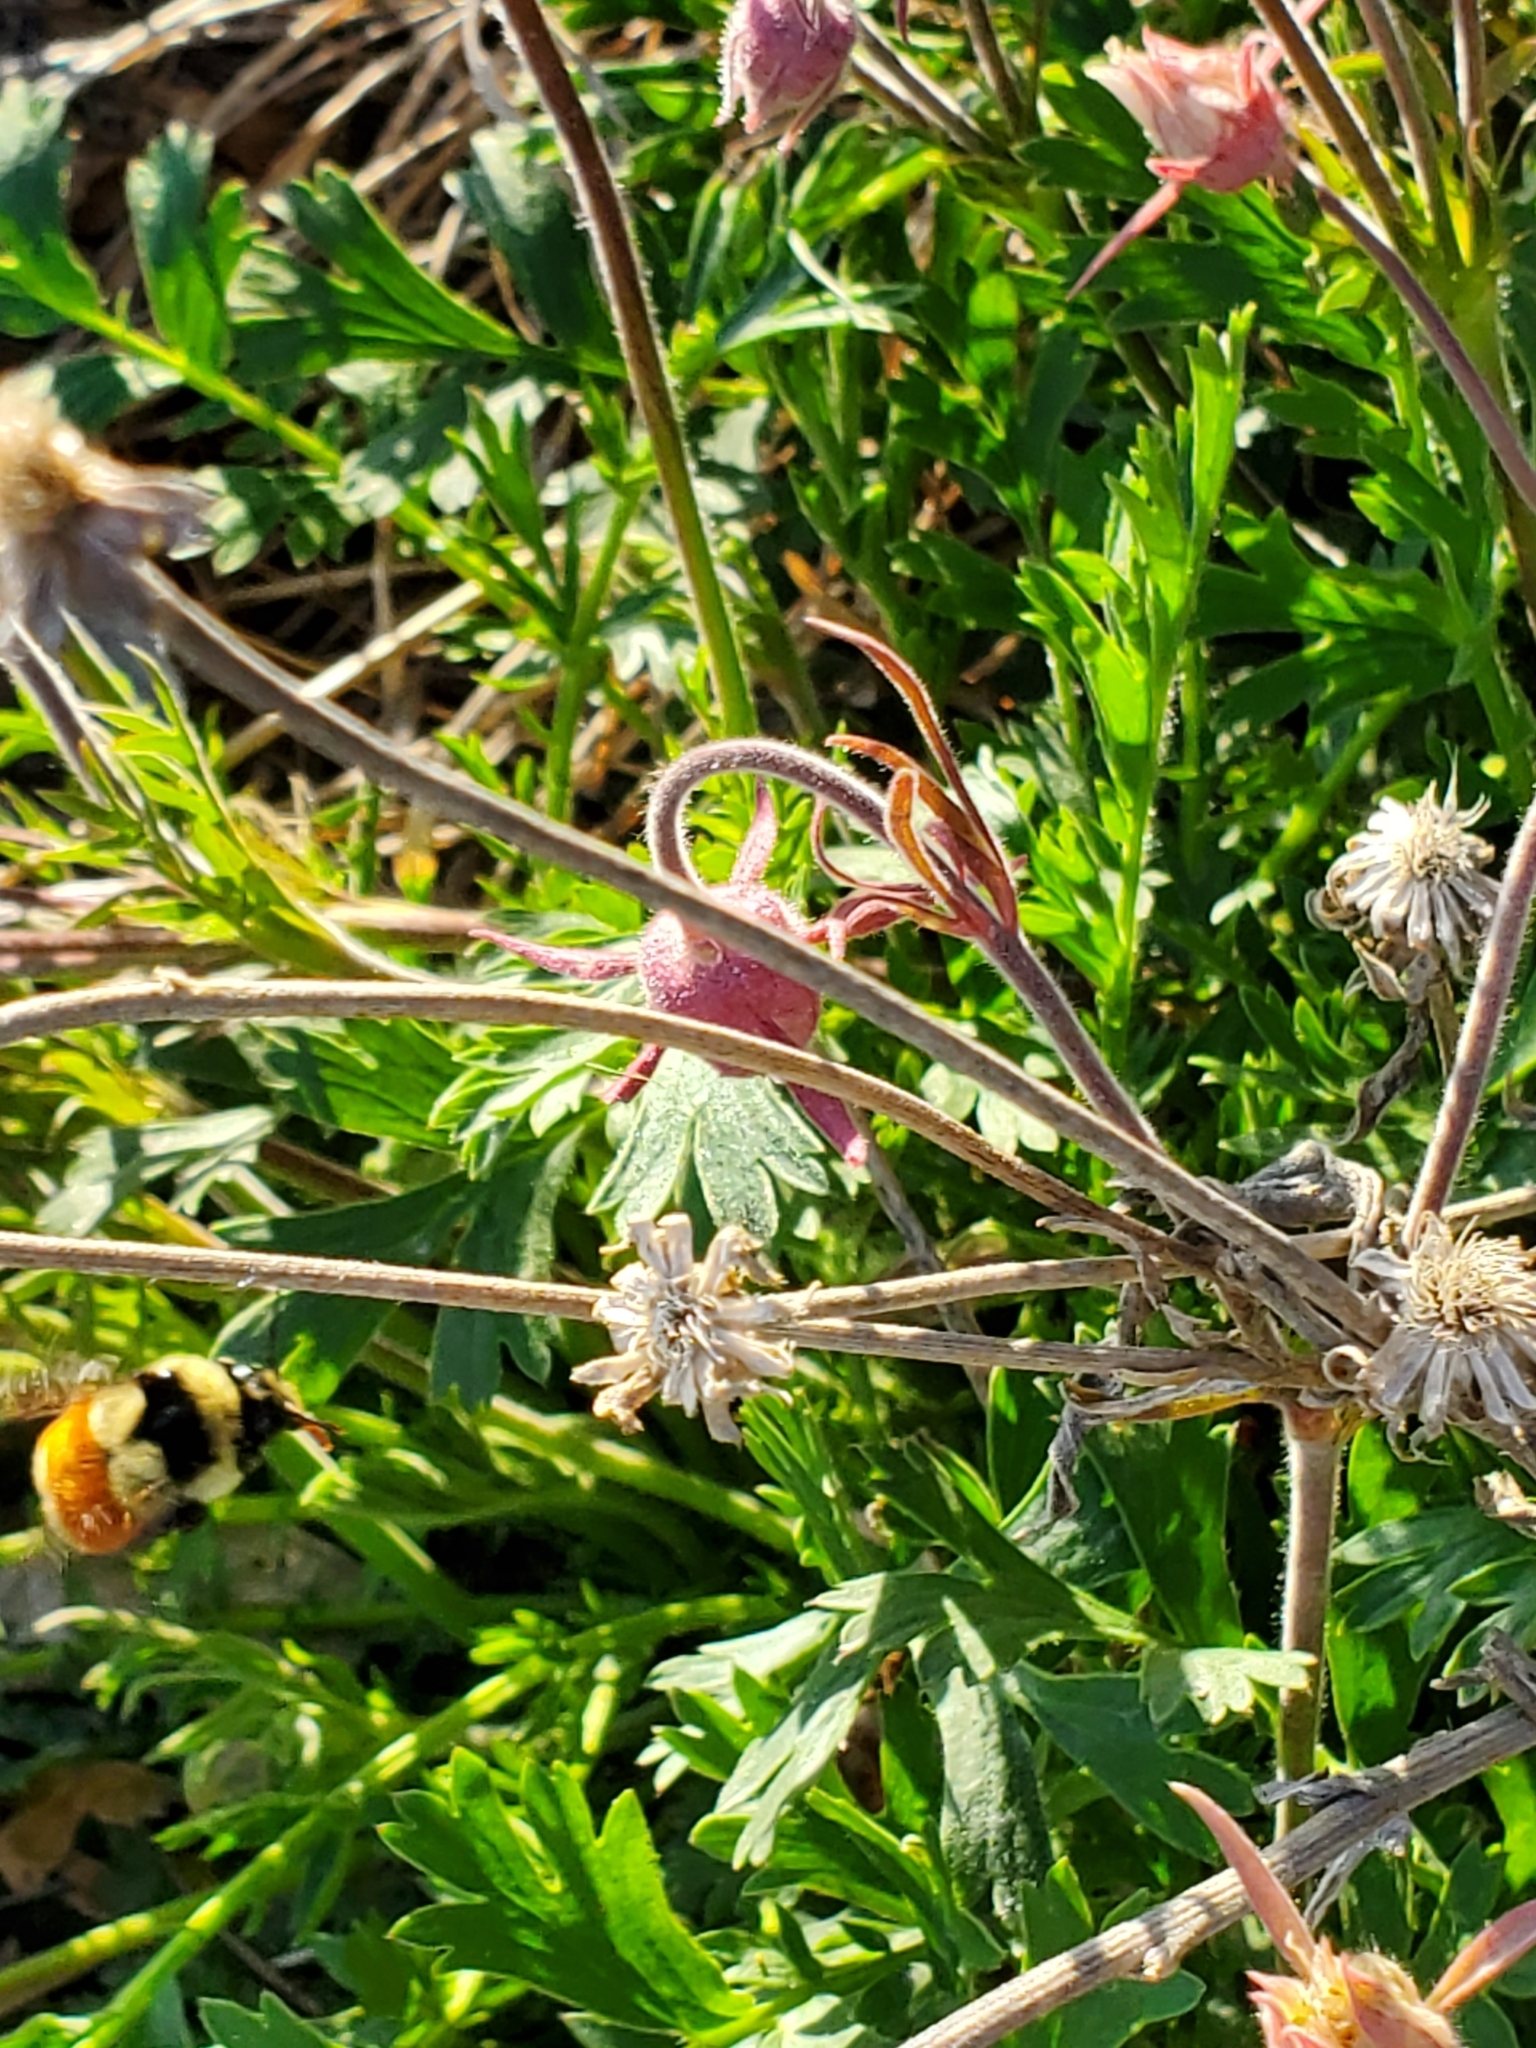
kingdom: Animalia
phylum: Arthropoda
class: Insecta
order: Hymenoptera
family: Apidae
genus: Bombus
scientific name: Bombus ternarius
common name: Tri-colored bumble bee
